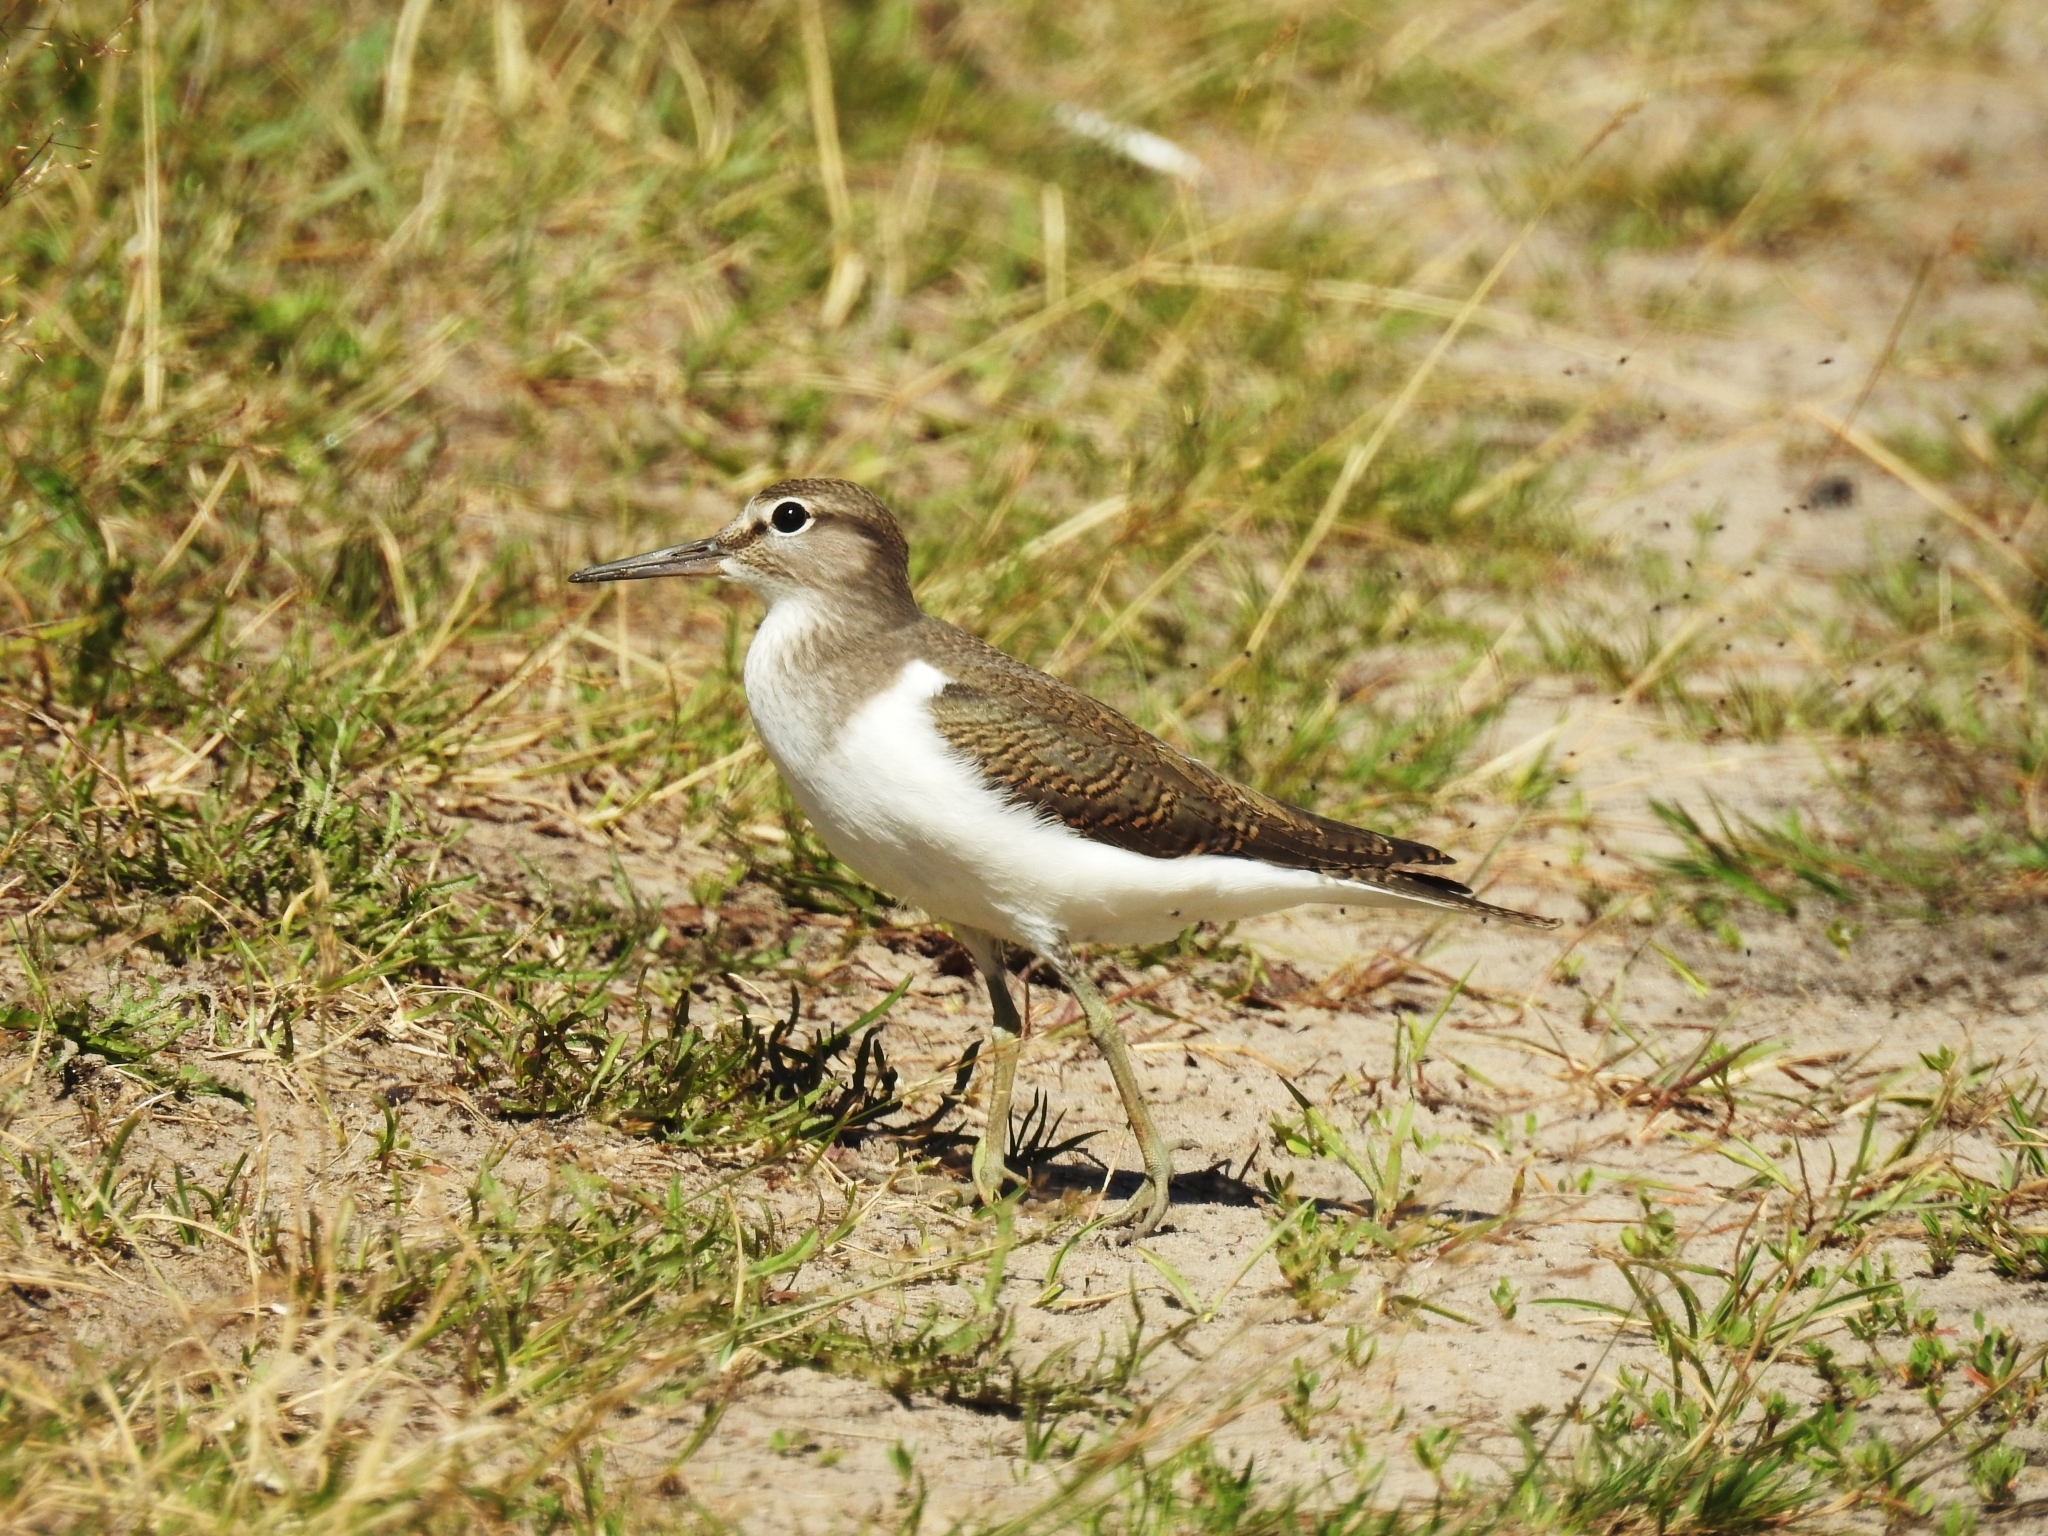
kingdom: Animalia
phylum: Chordata
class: Aves
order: Charadriiformes
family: Scolopacidae
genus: Actitis
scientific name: Actitis hypoleucos
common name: Common sandpiper
